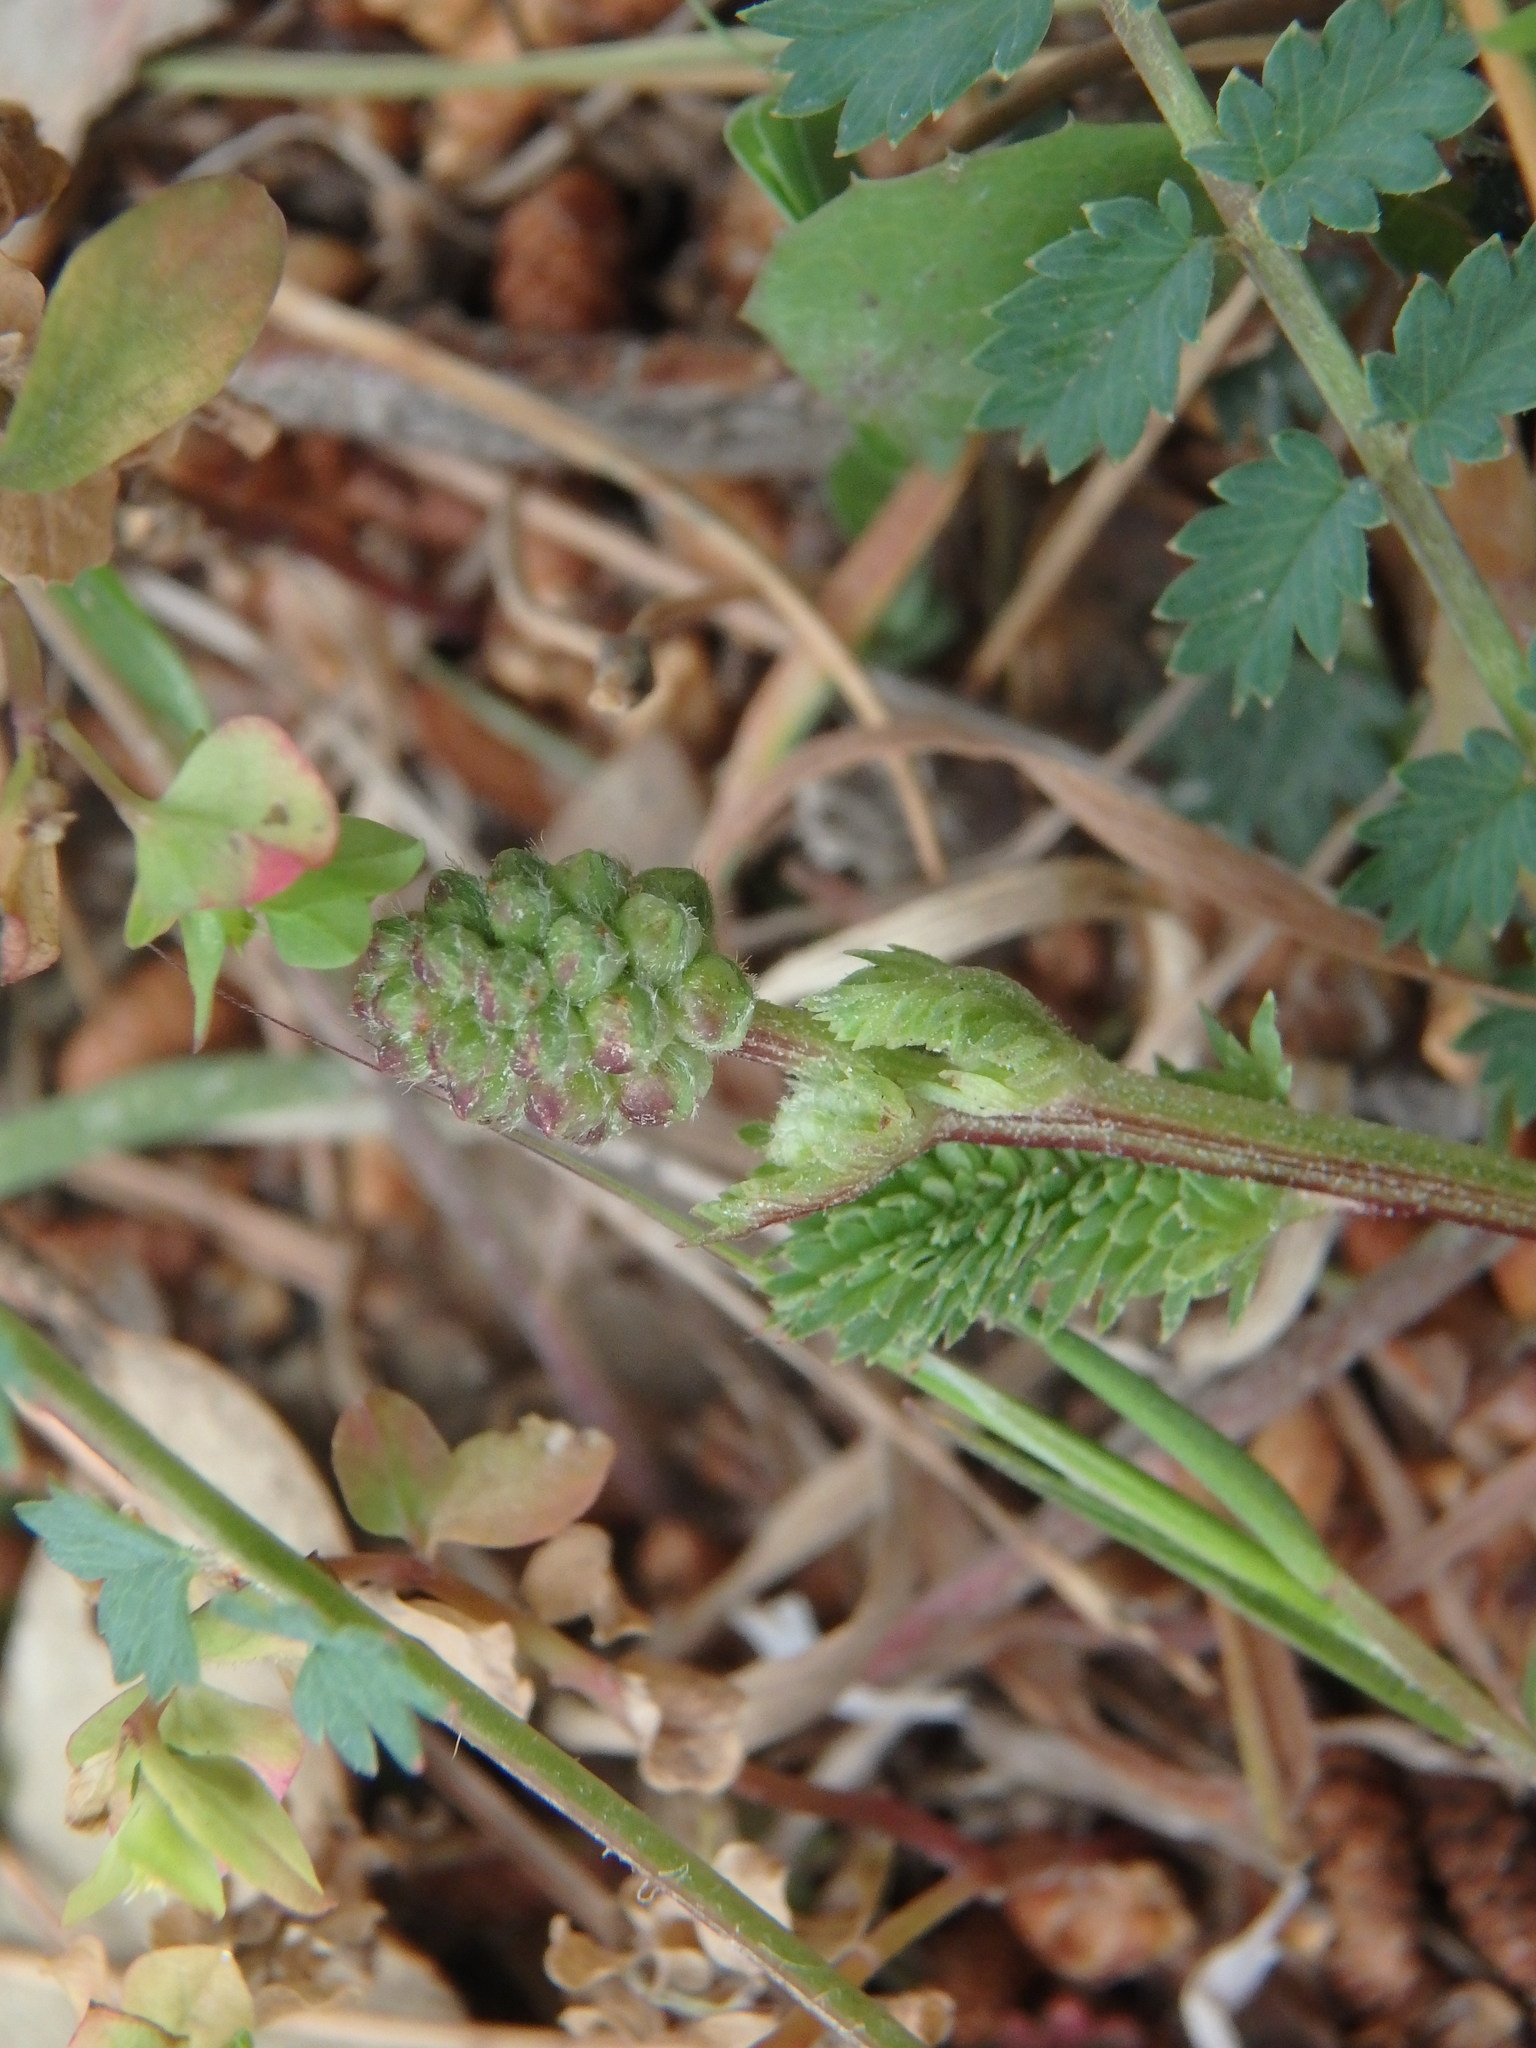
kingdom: Plantae
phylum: Tracheophyta
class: Magnoliopsida
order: Rosales
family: Rosaceae
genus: Poterium
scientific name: Poterium sanguisorba
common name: Salad burnet
